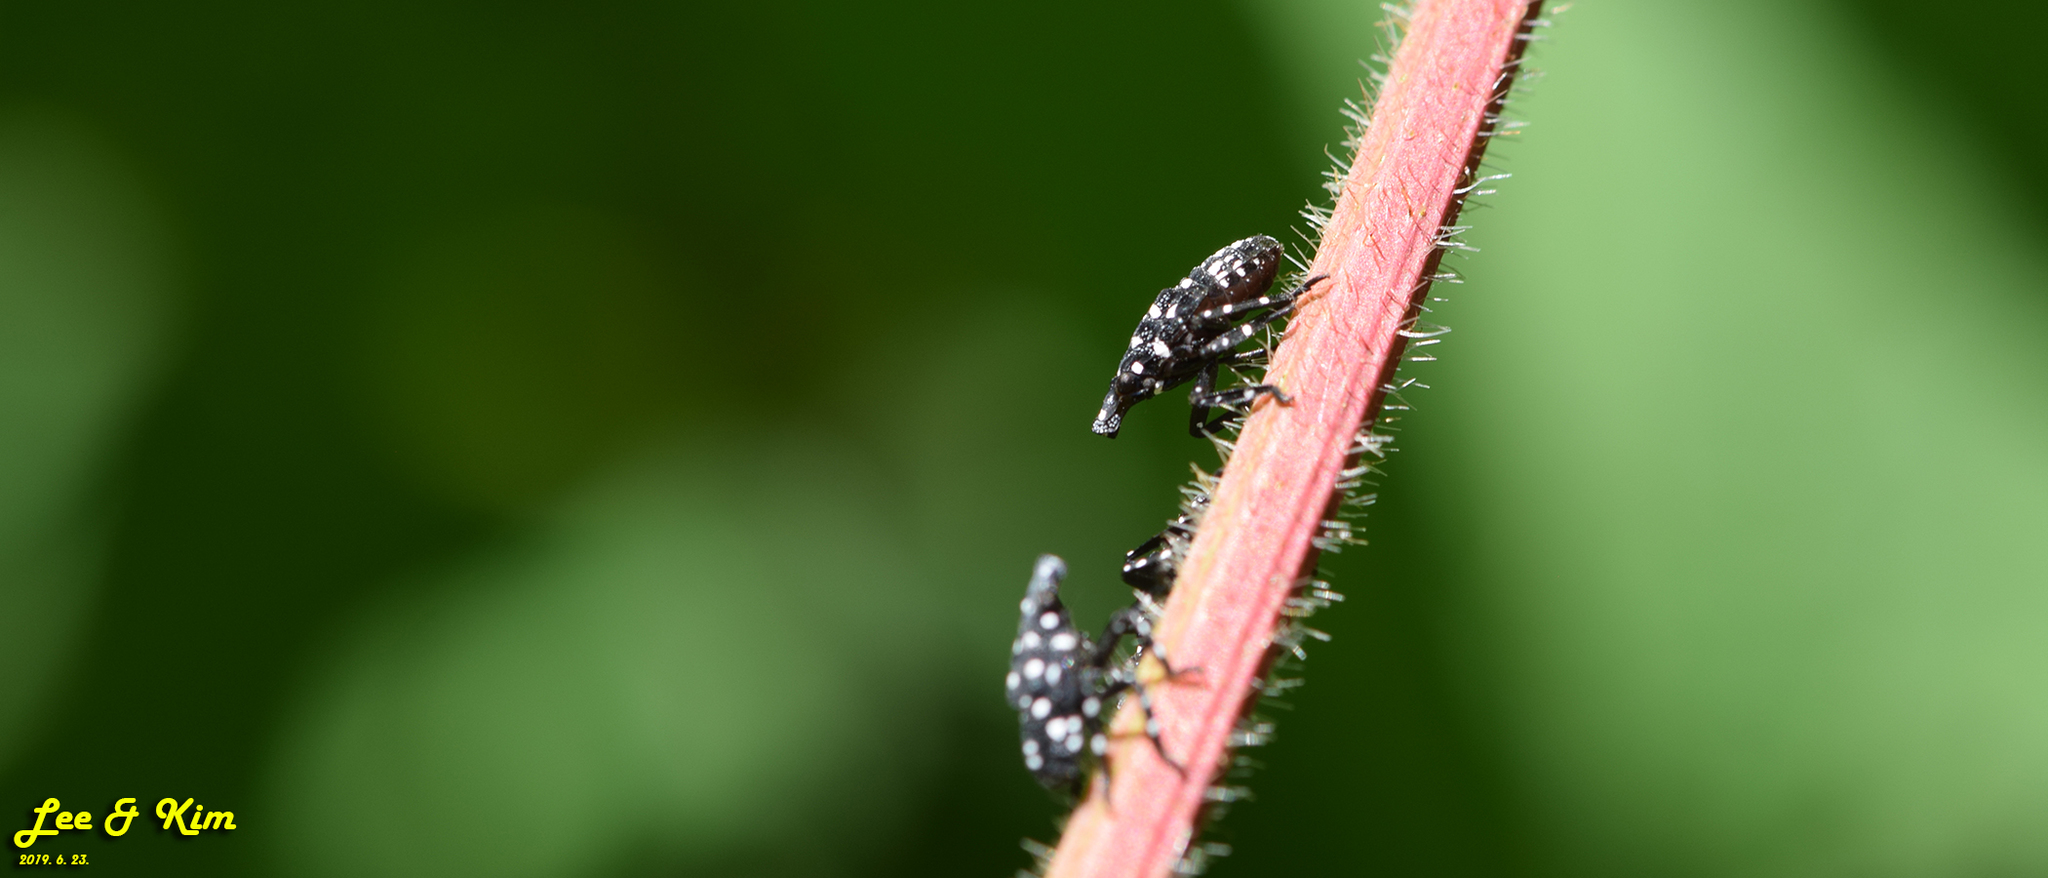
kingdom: Animalia
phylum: Arthropoda
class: Insecta
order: Hemiptera
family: Fulgoridae
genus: Lycorma
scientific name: Lycorma delicatula
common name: Spotted lanternfly
